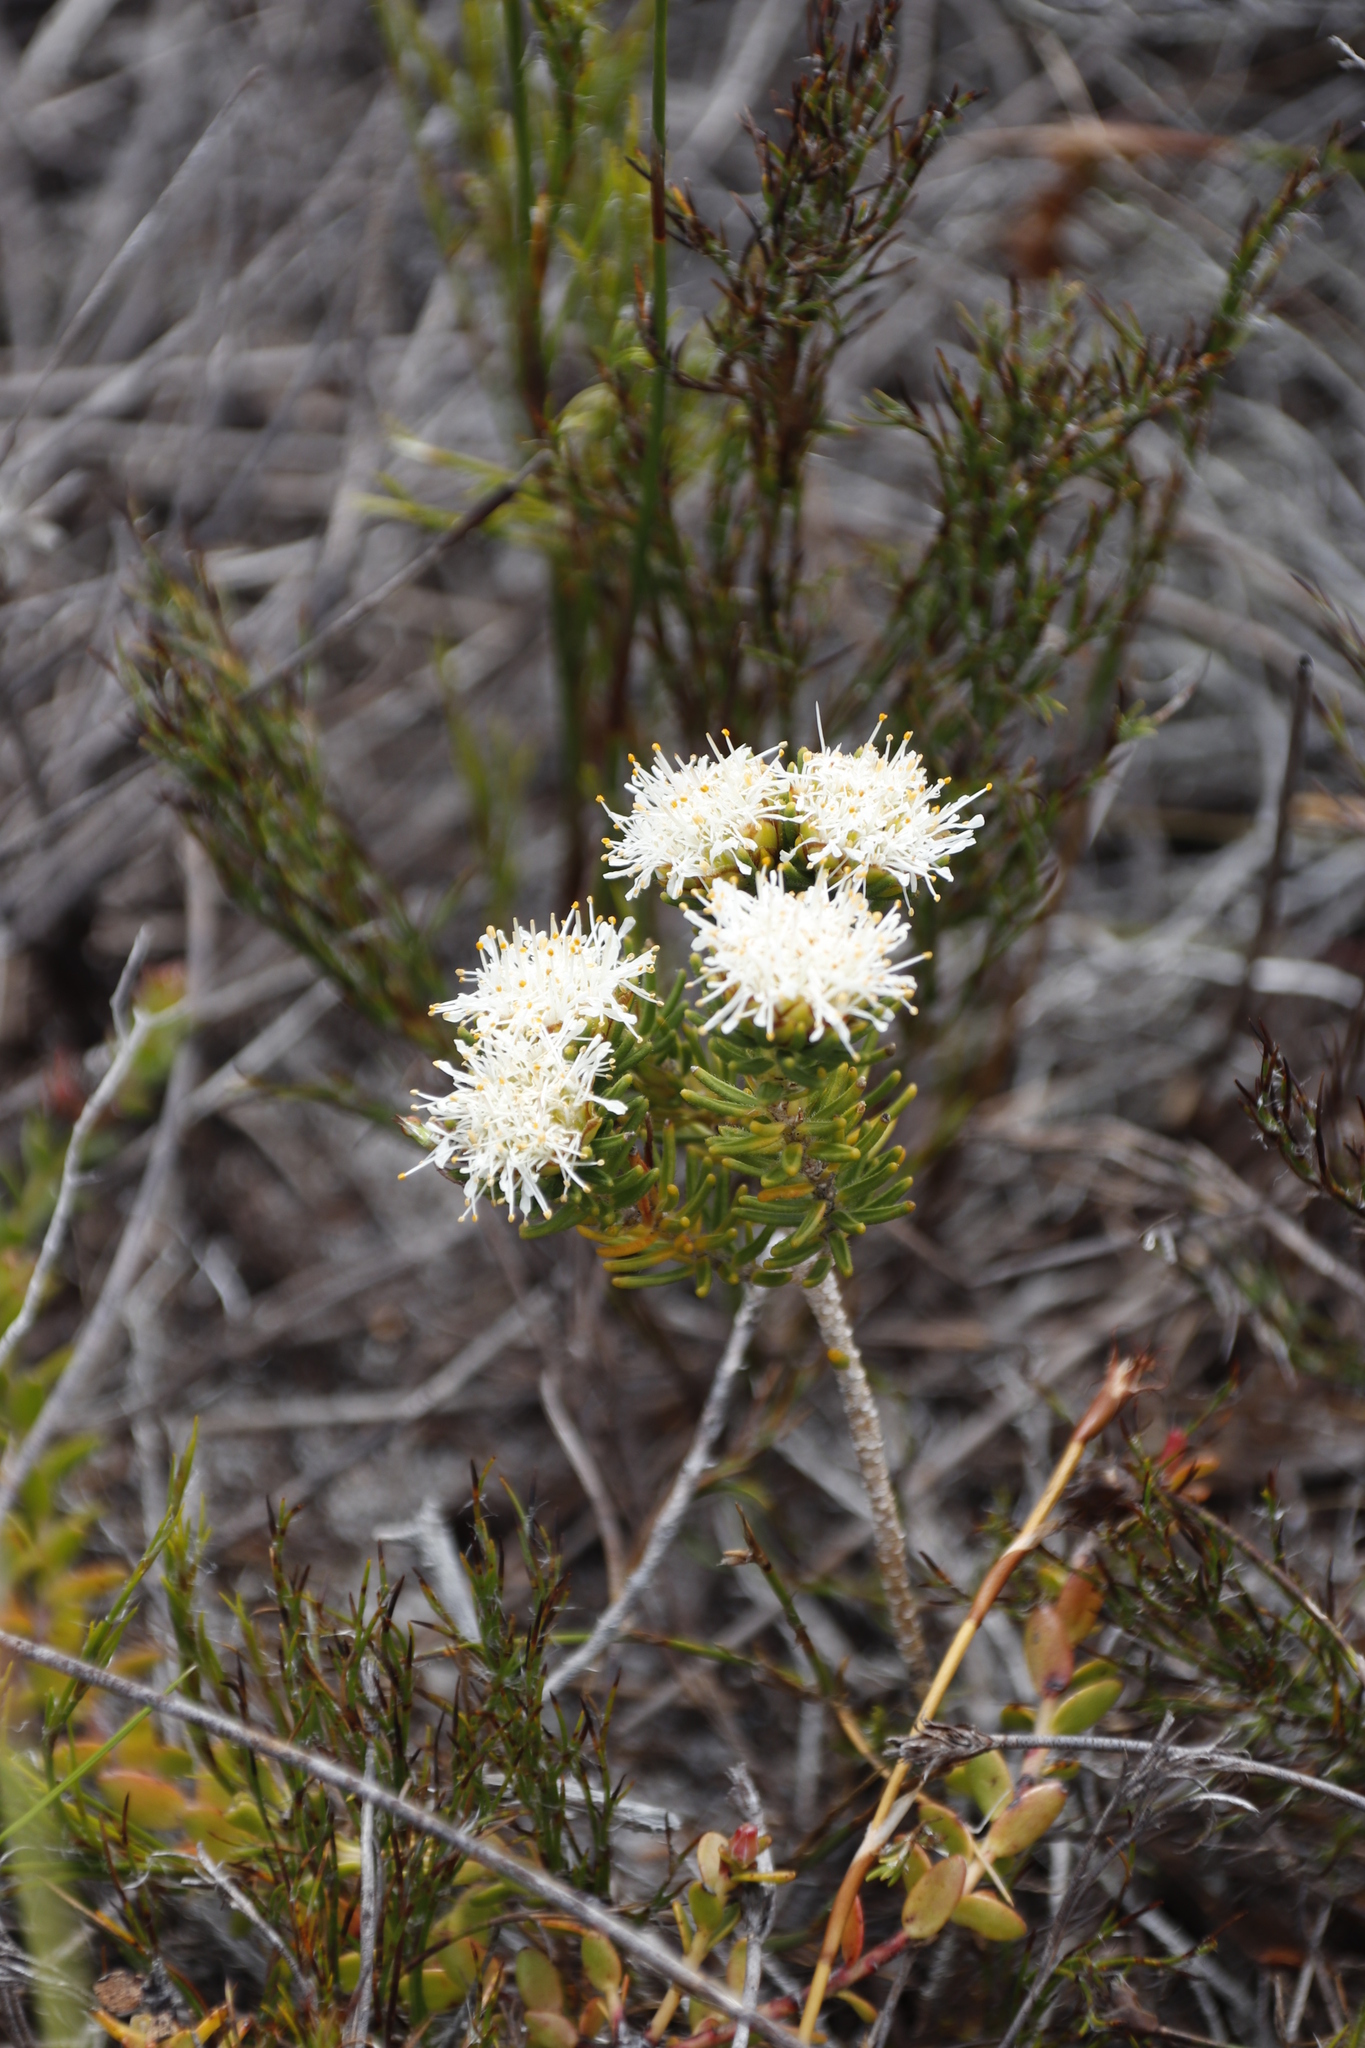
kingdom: Plantae
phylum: Tracheophyta
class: Magnoliopsida
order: Sapindales
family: Rutaceae
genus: Agathosma
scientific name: Agathosma hookeri
